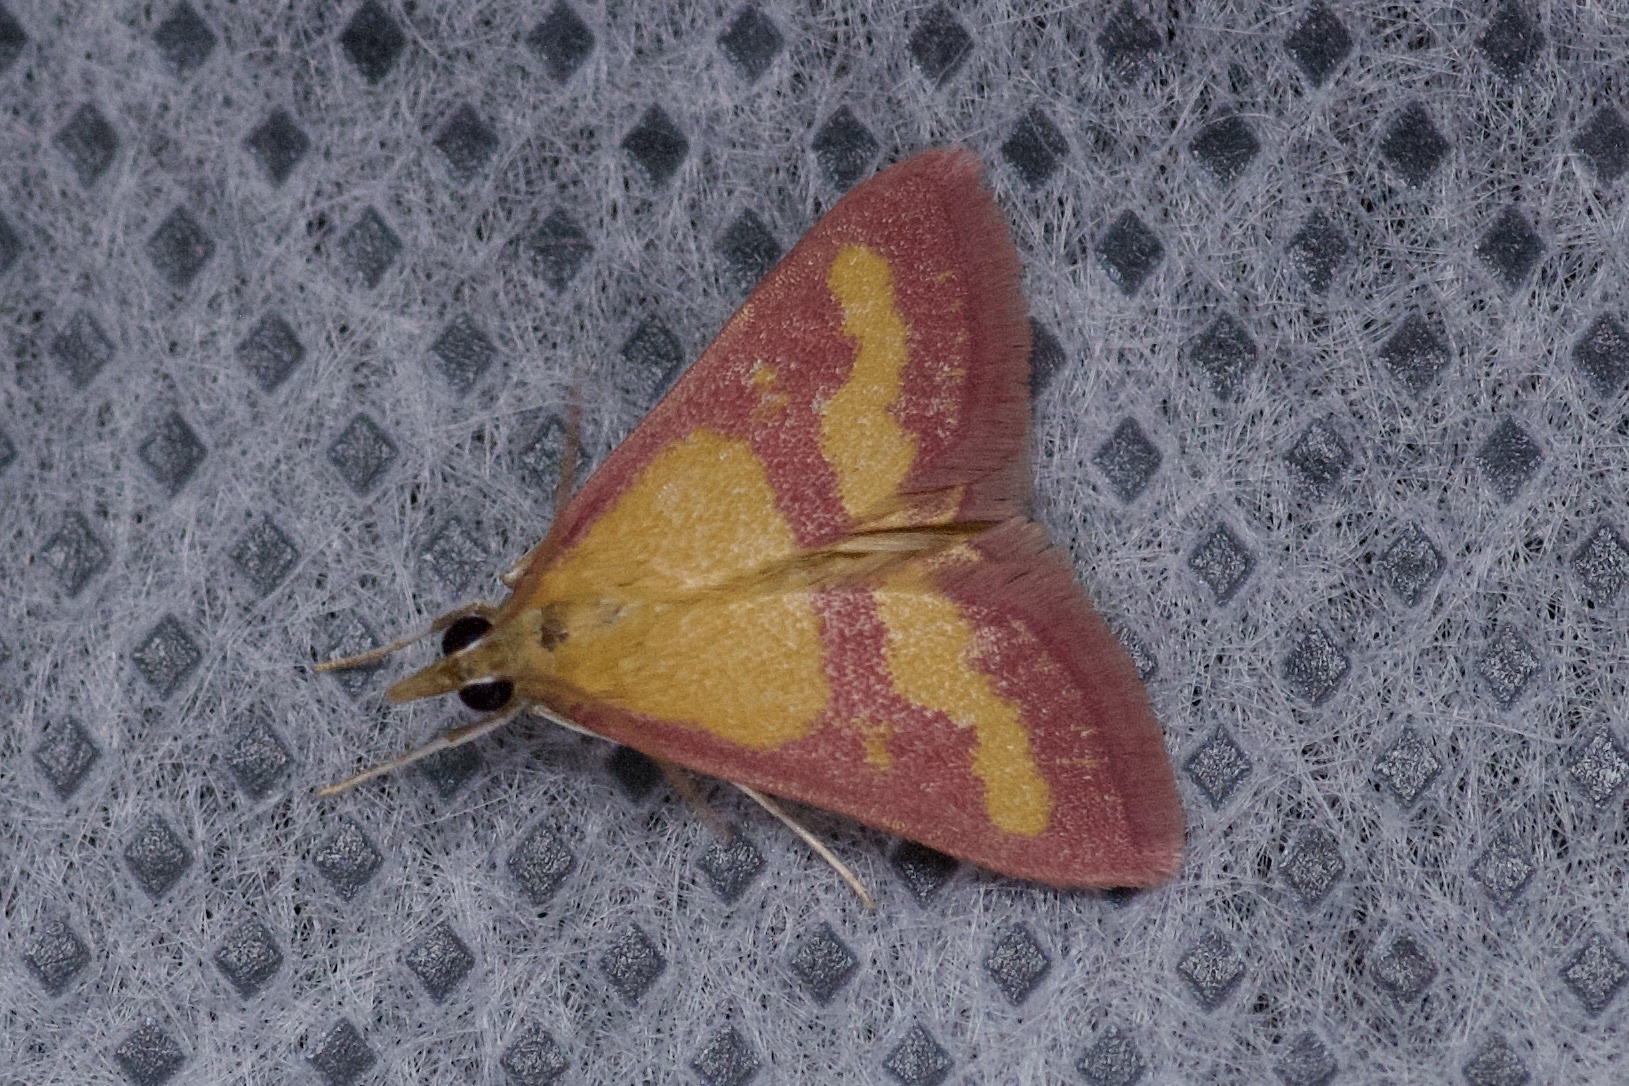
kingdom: Animalia
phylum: Arthropoda
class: Insecta
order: Lepidoptera
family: Crambidae
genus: Pyrausta
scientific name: Pyrausta laticlavia
